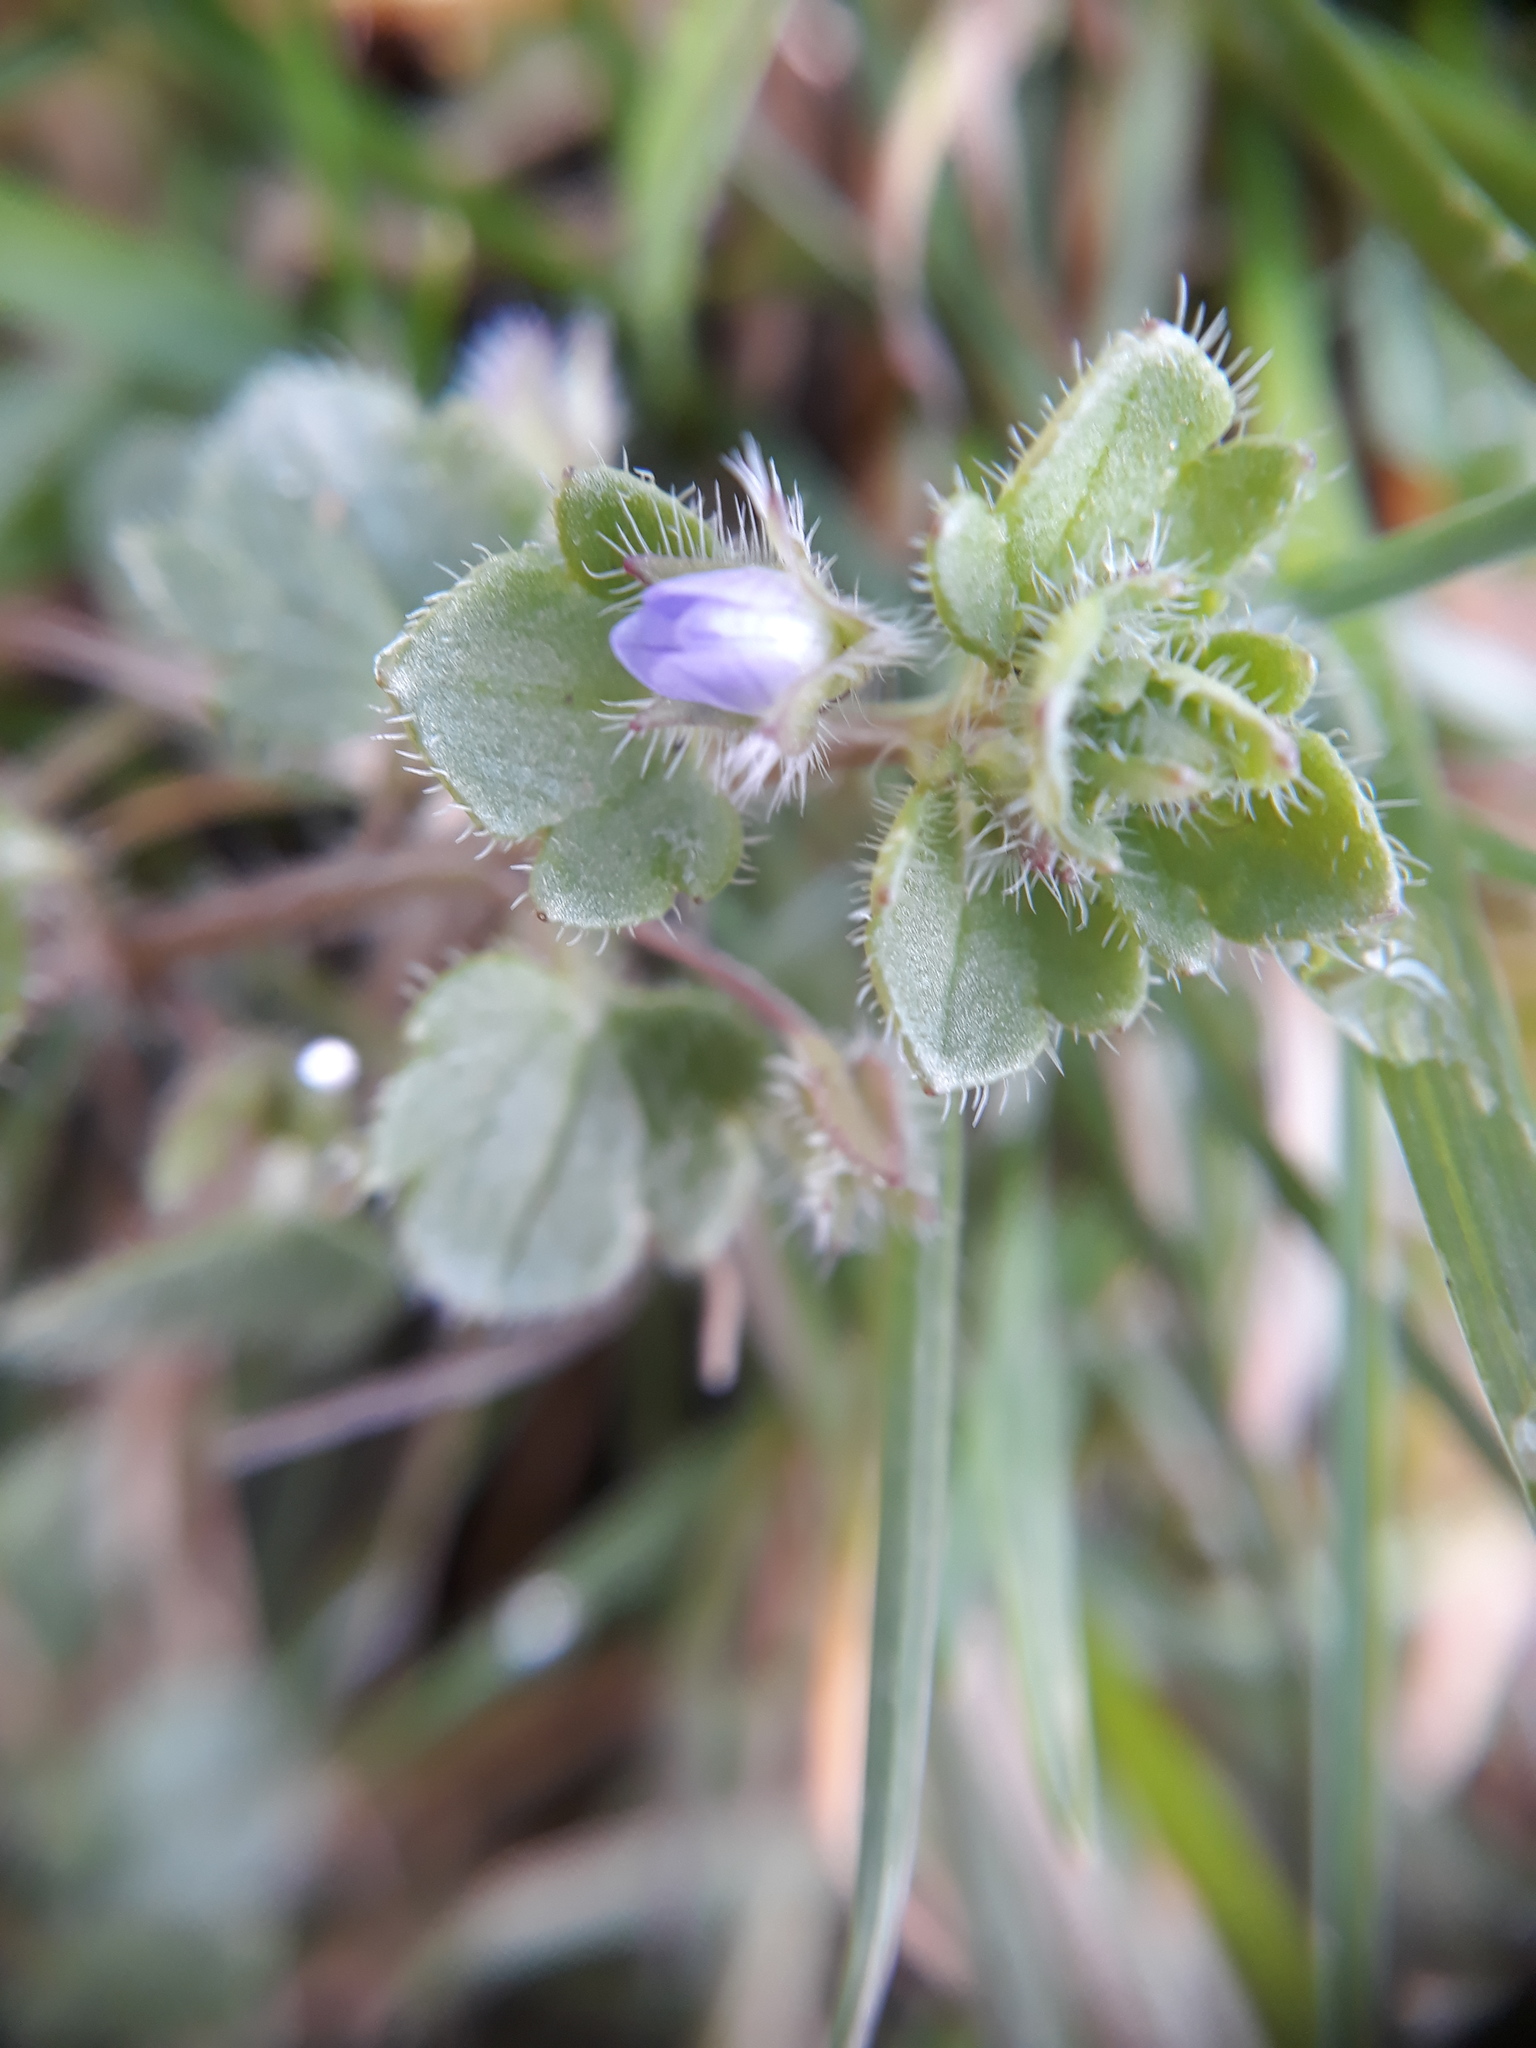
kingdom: Plantae
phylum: Tracheophyta
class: Magnoliopsida
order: Lamiales
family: Plantaginaceae
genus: Veronica
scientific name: Veronica hederifolia
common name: Ivy-leaved speedwell
